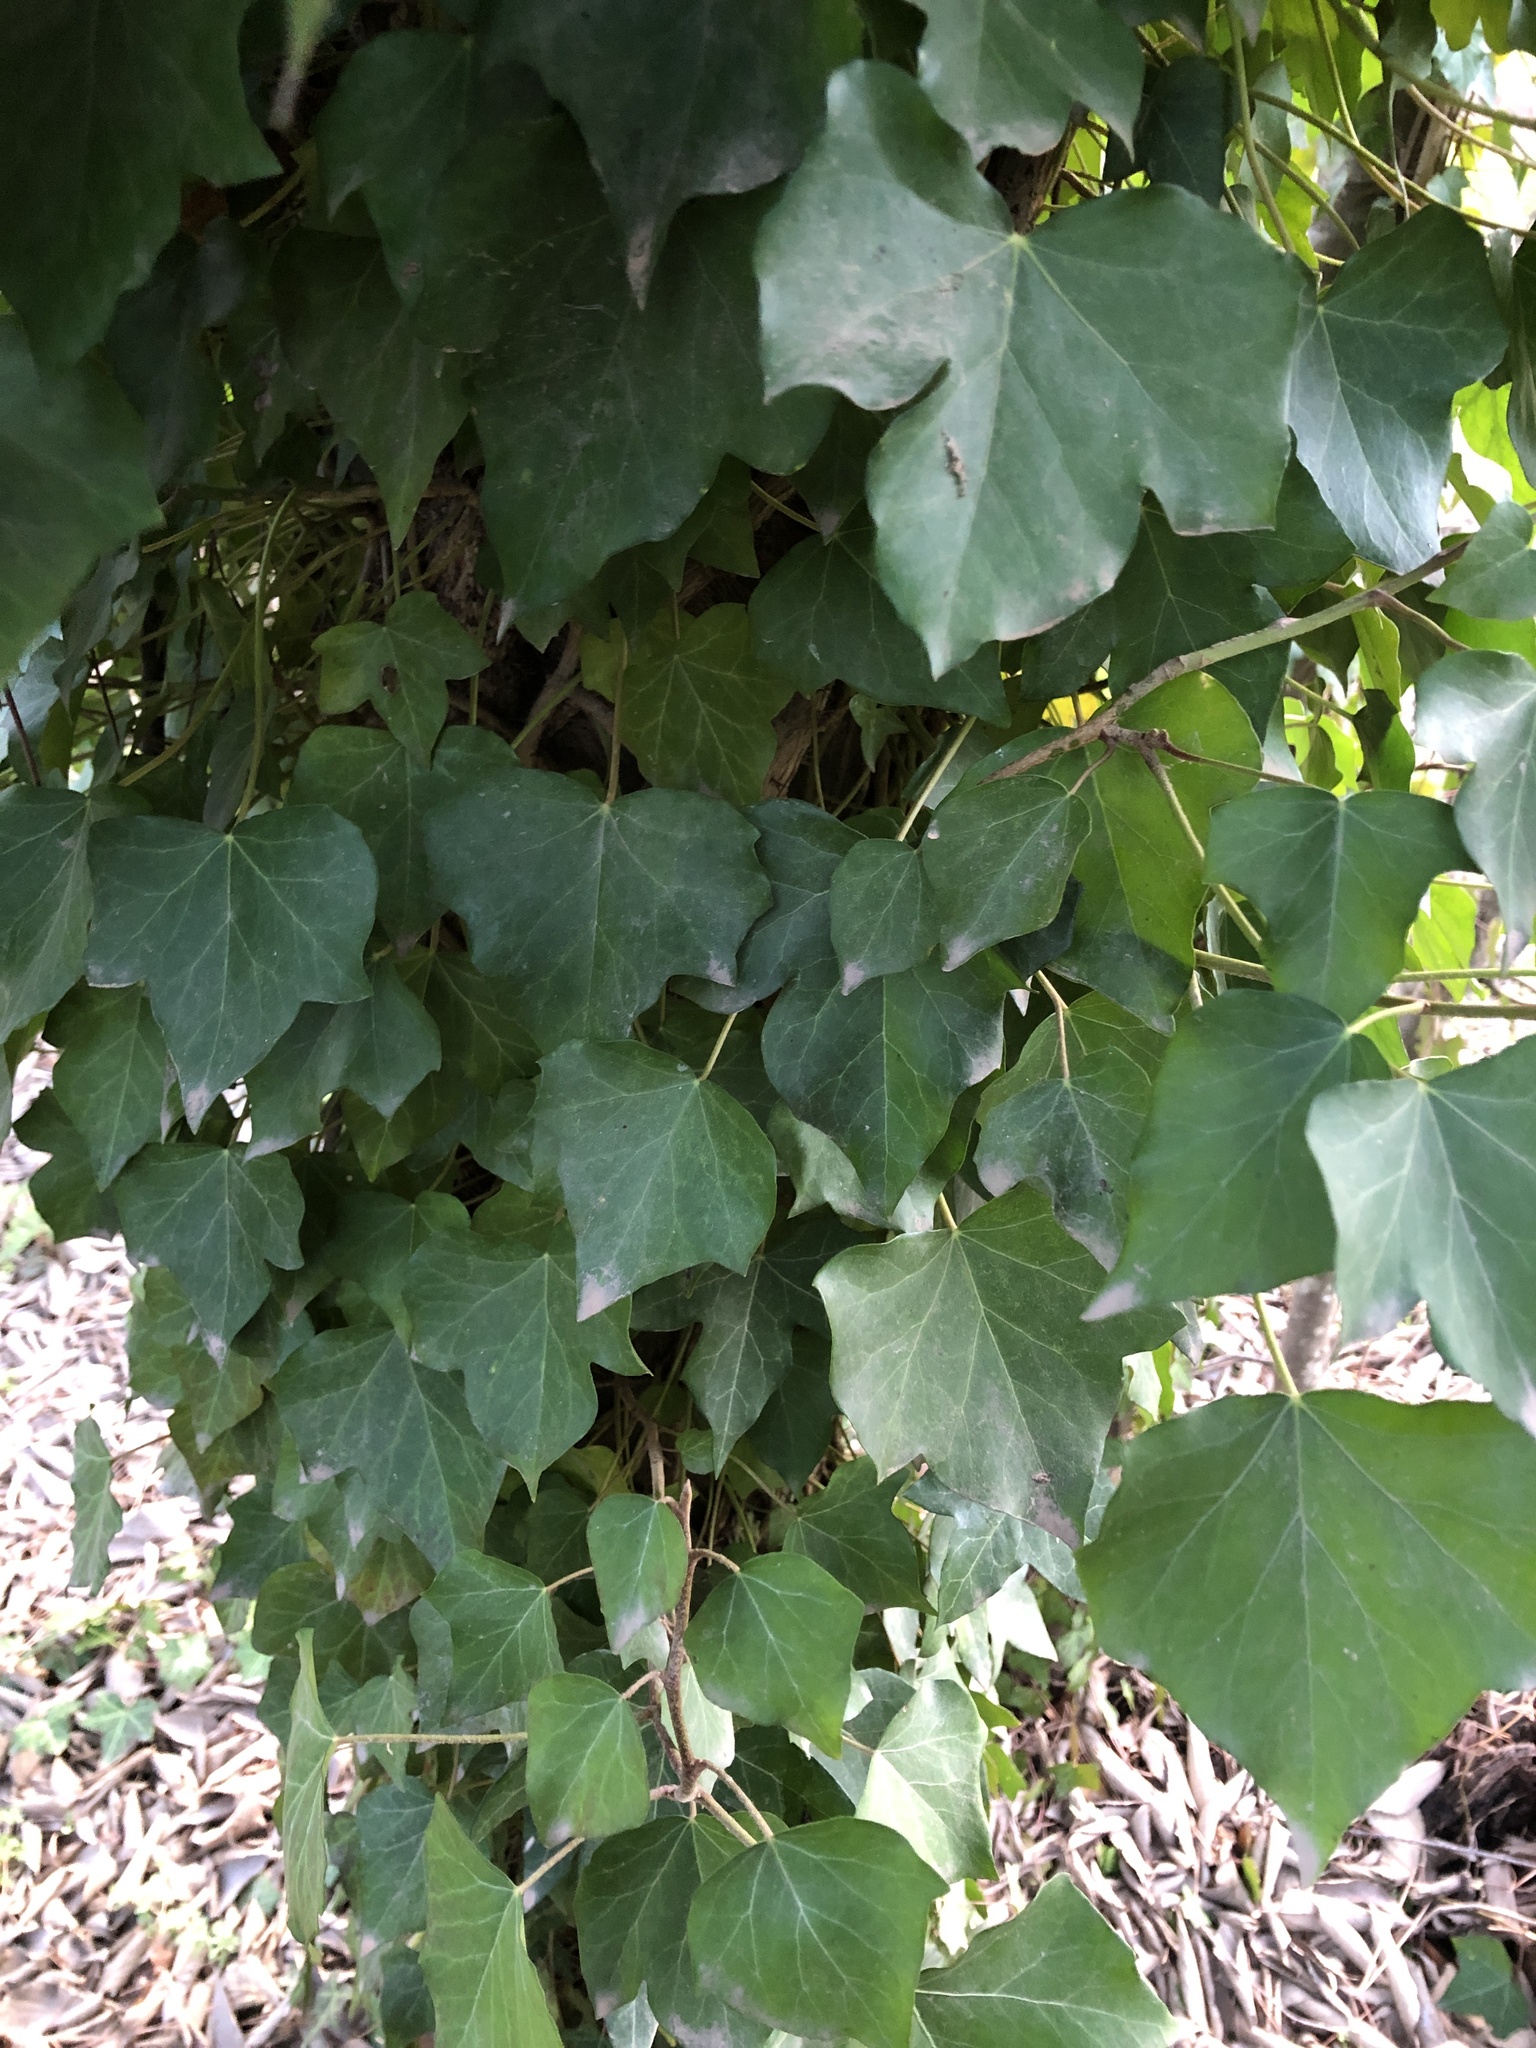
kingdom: Plantae
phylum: Tracheophyta
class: Magnoliopsida
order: Apiales
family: Araliaceae
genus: Hedera
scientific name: Hedera helix
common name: Ivy
